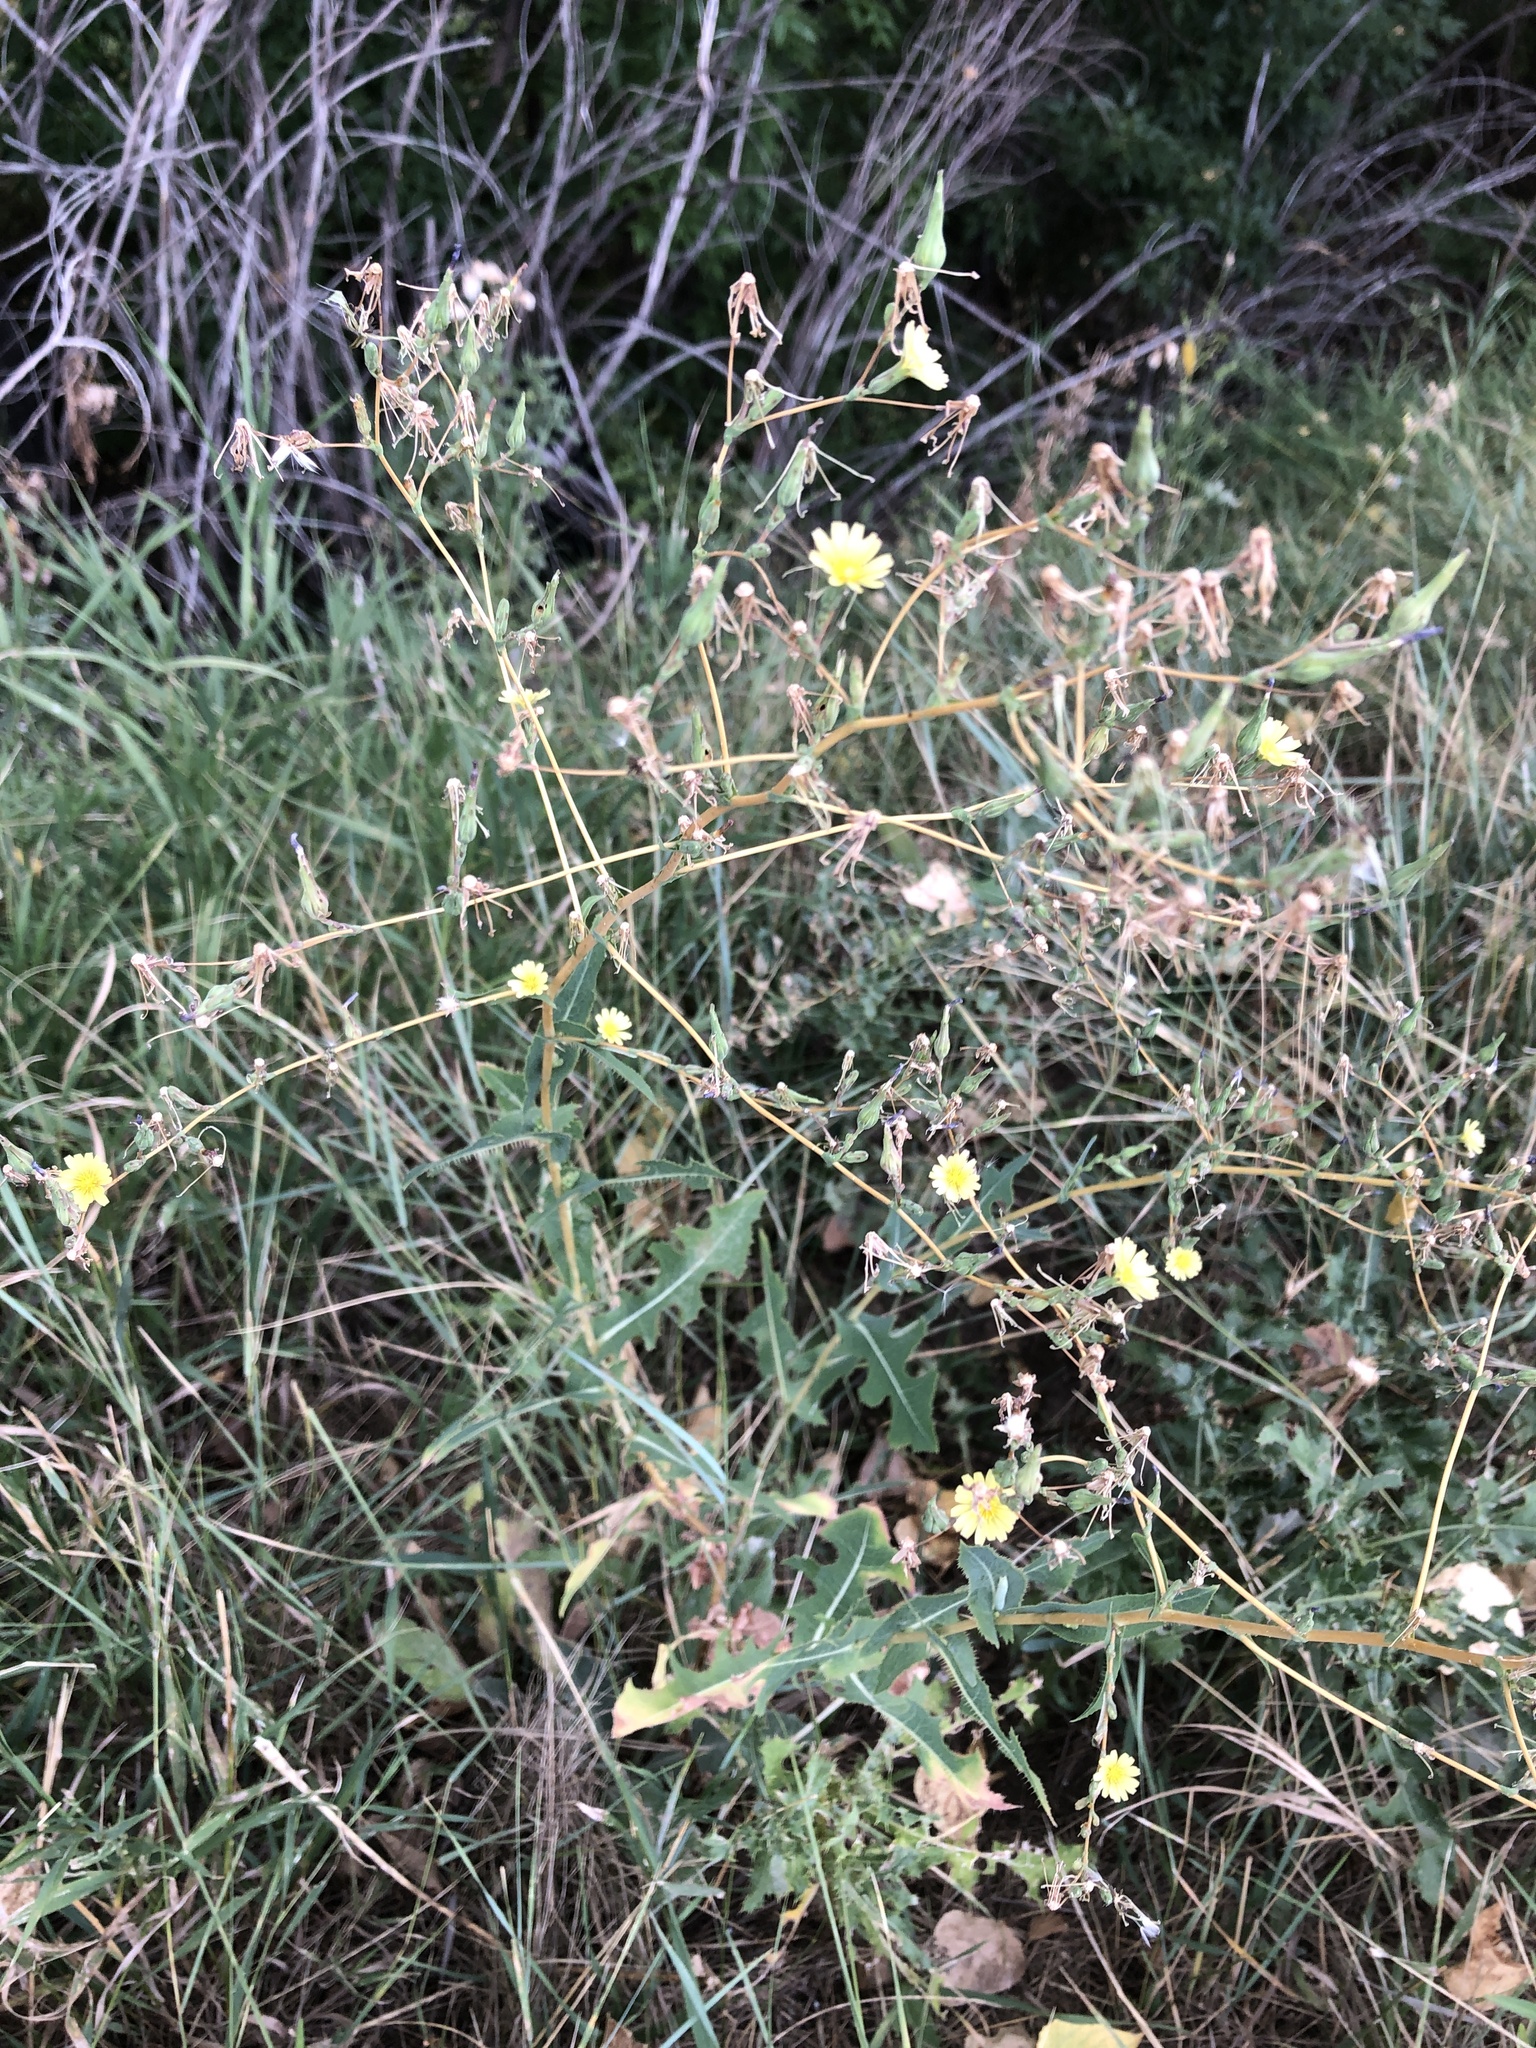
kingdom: Plantae
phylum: Tracheophyta
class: Magnoliopsida
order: Asterales
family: Asteraceae
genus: Lactuca
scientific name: Lactuca serriola
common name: Prickly lettuce
